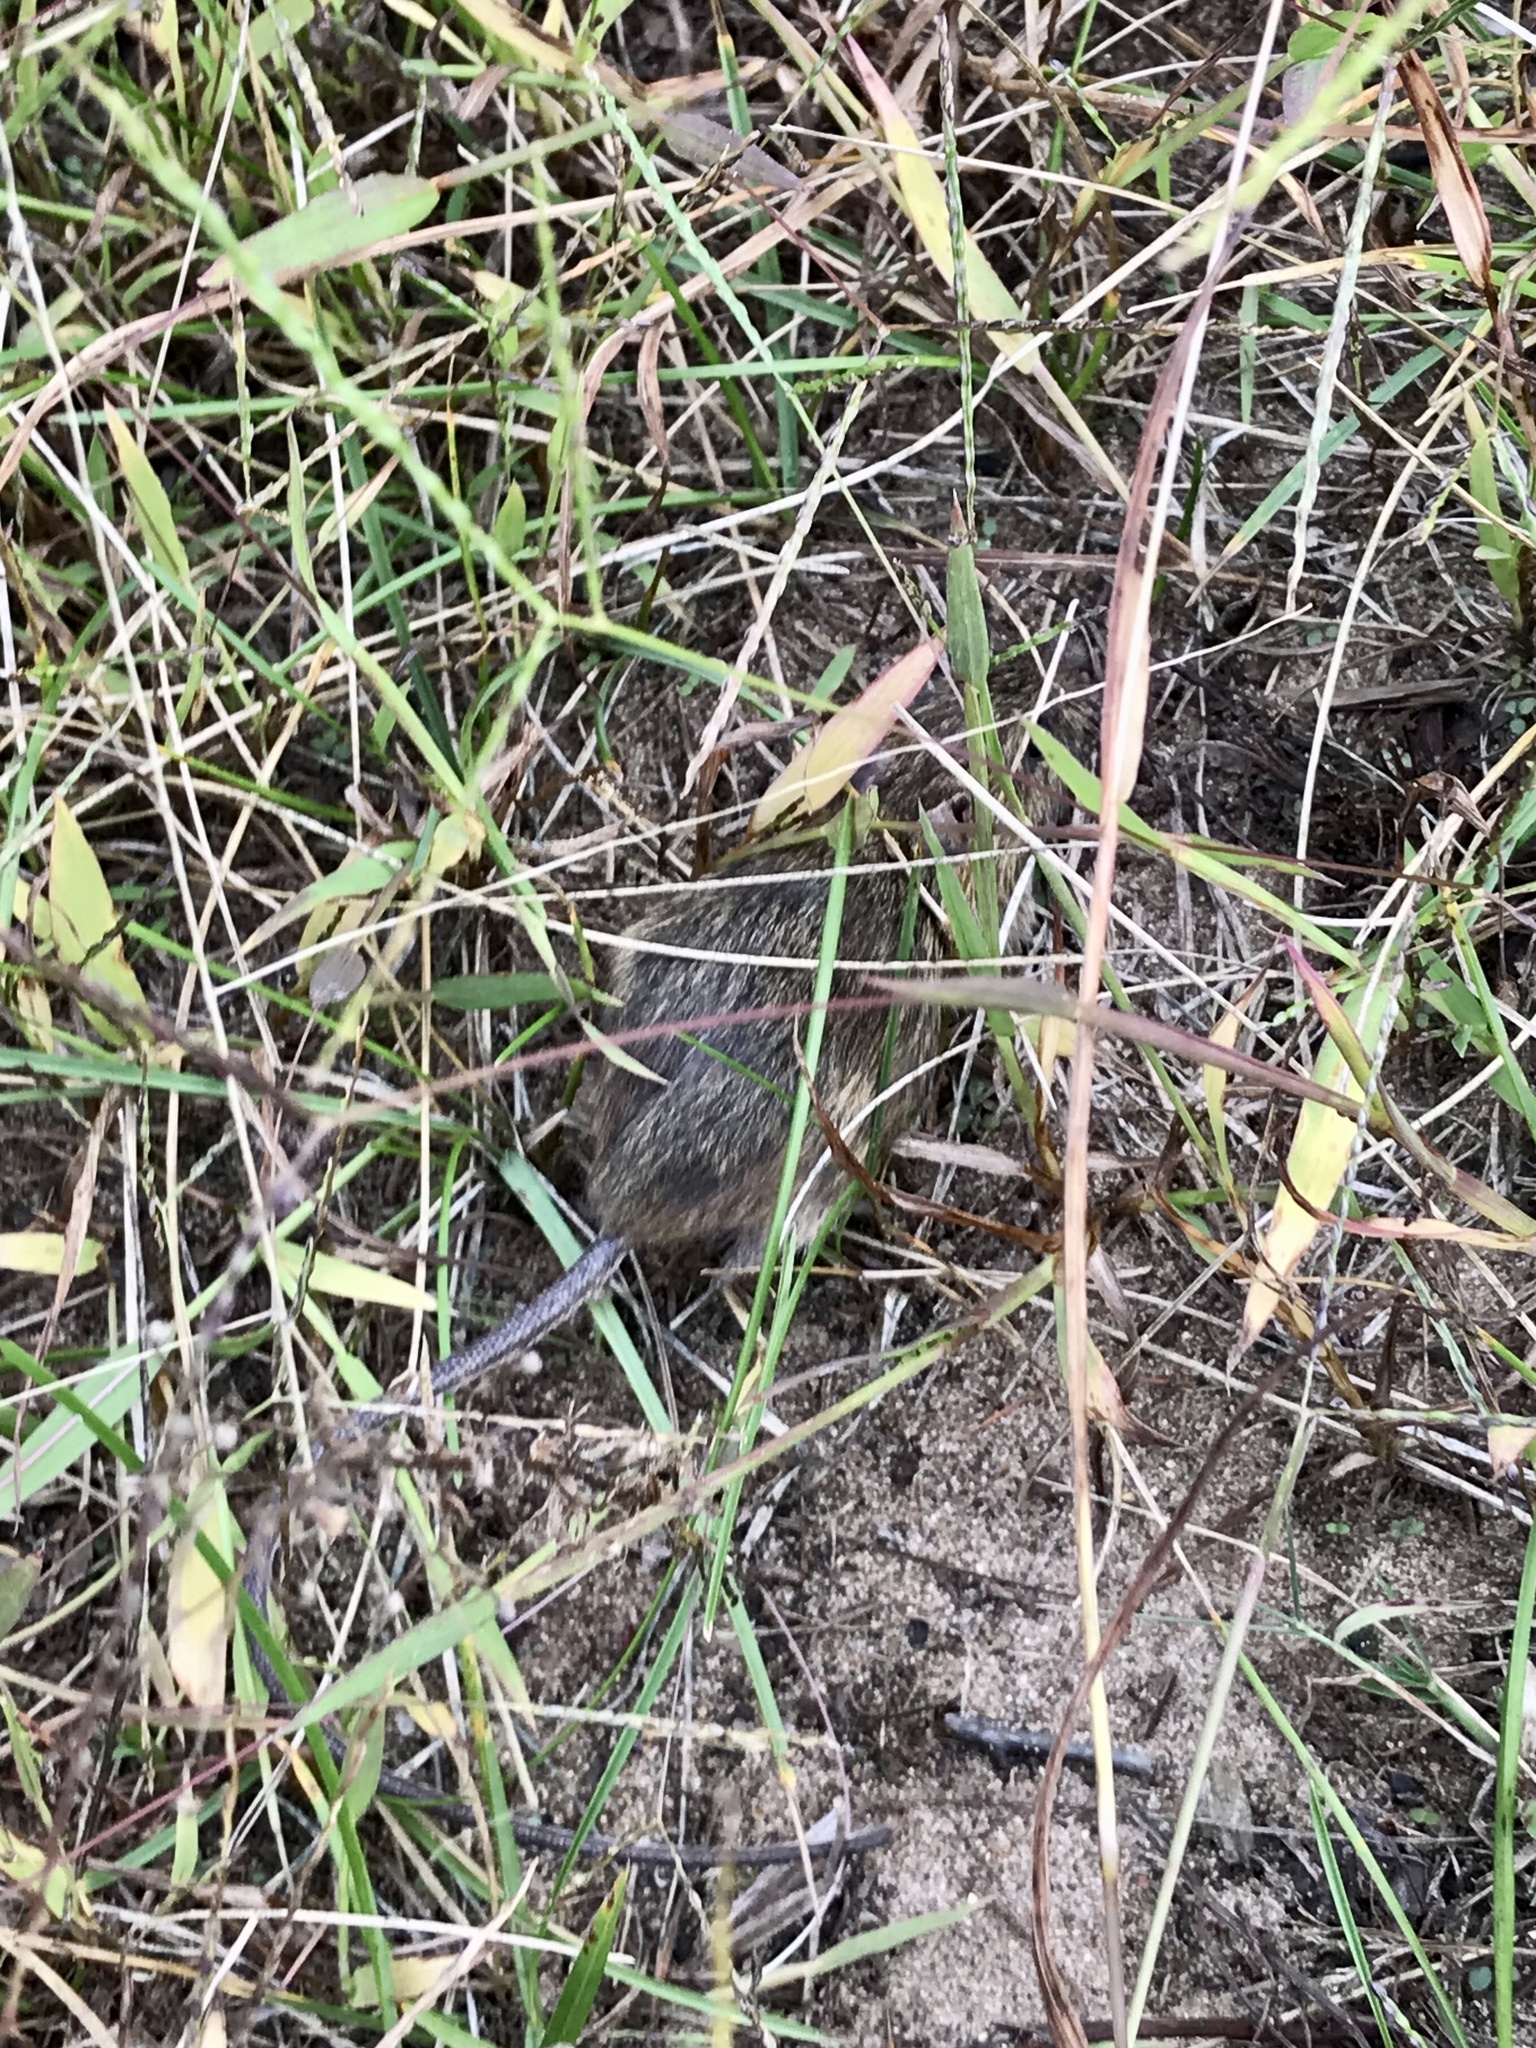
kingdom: Animalia
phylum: Chordata
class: Mammalia
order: Rodentia
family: Dipodidae
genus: Zapus
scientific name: Zapus hudsonius
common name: Meadow jumping mouse
